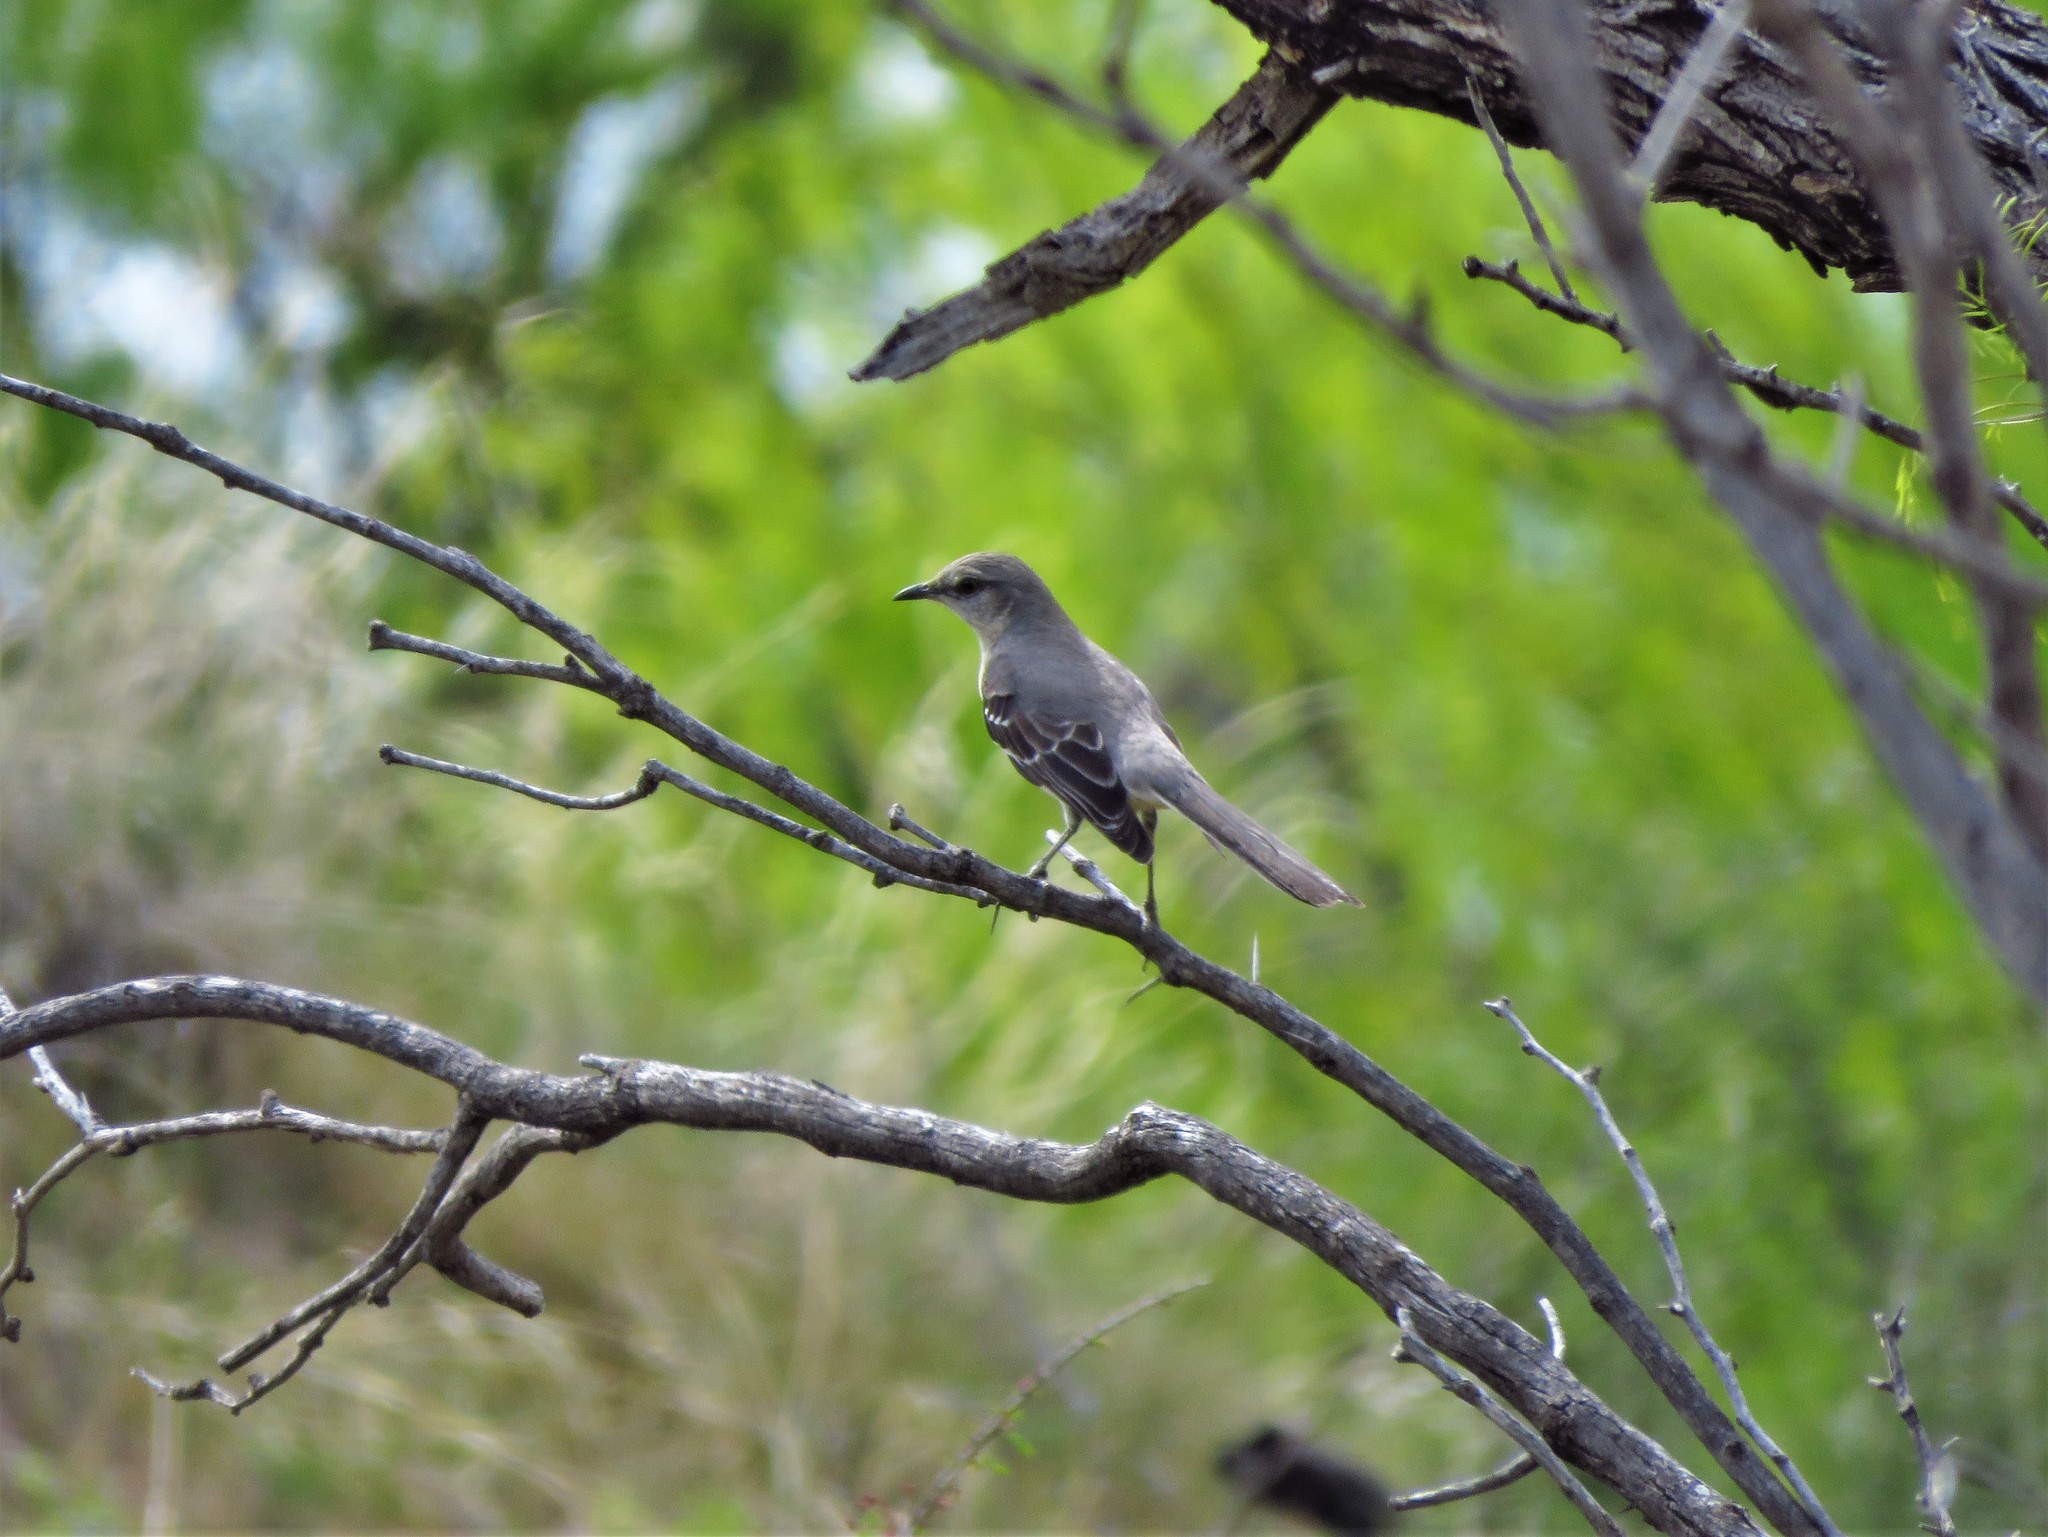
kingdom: Animalia
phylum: Chordata
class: Aves
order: Passeriformes
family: Mimidae
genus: Mimus
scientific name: Mimus polyglottos
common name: Northern mockingbird
